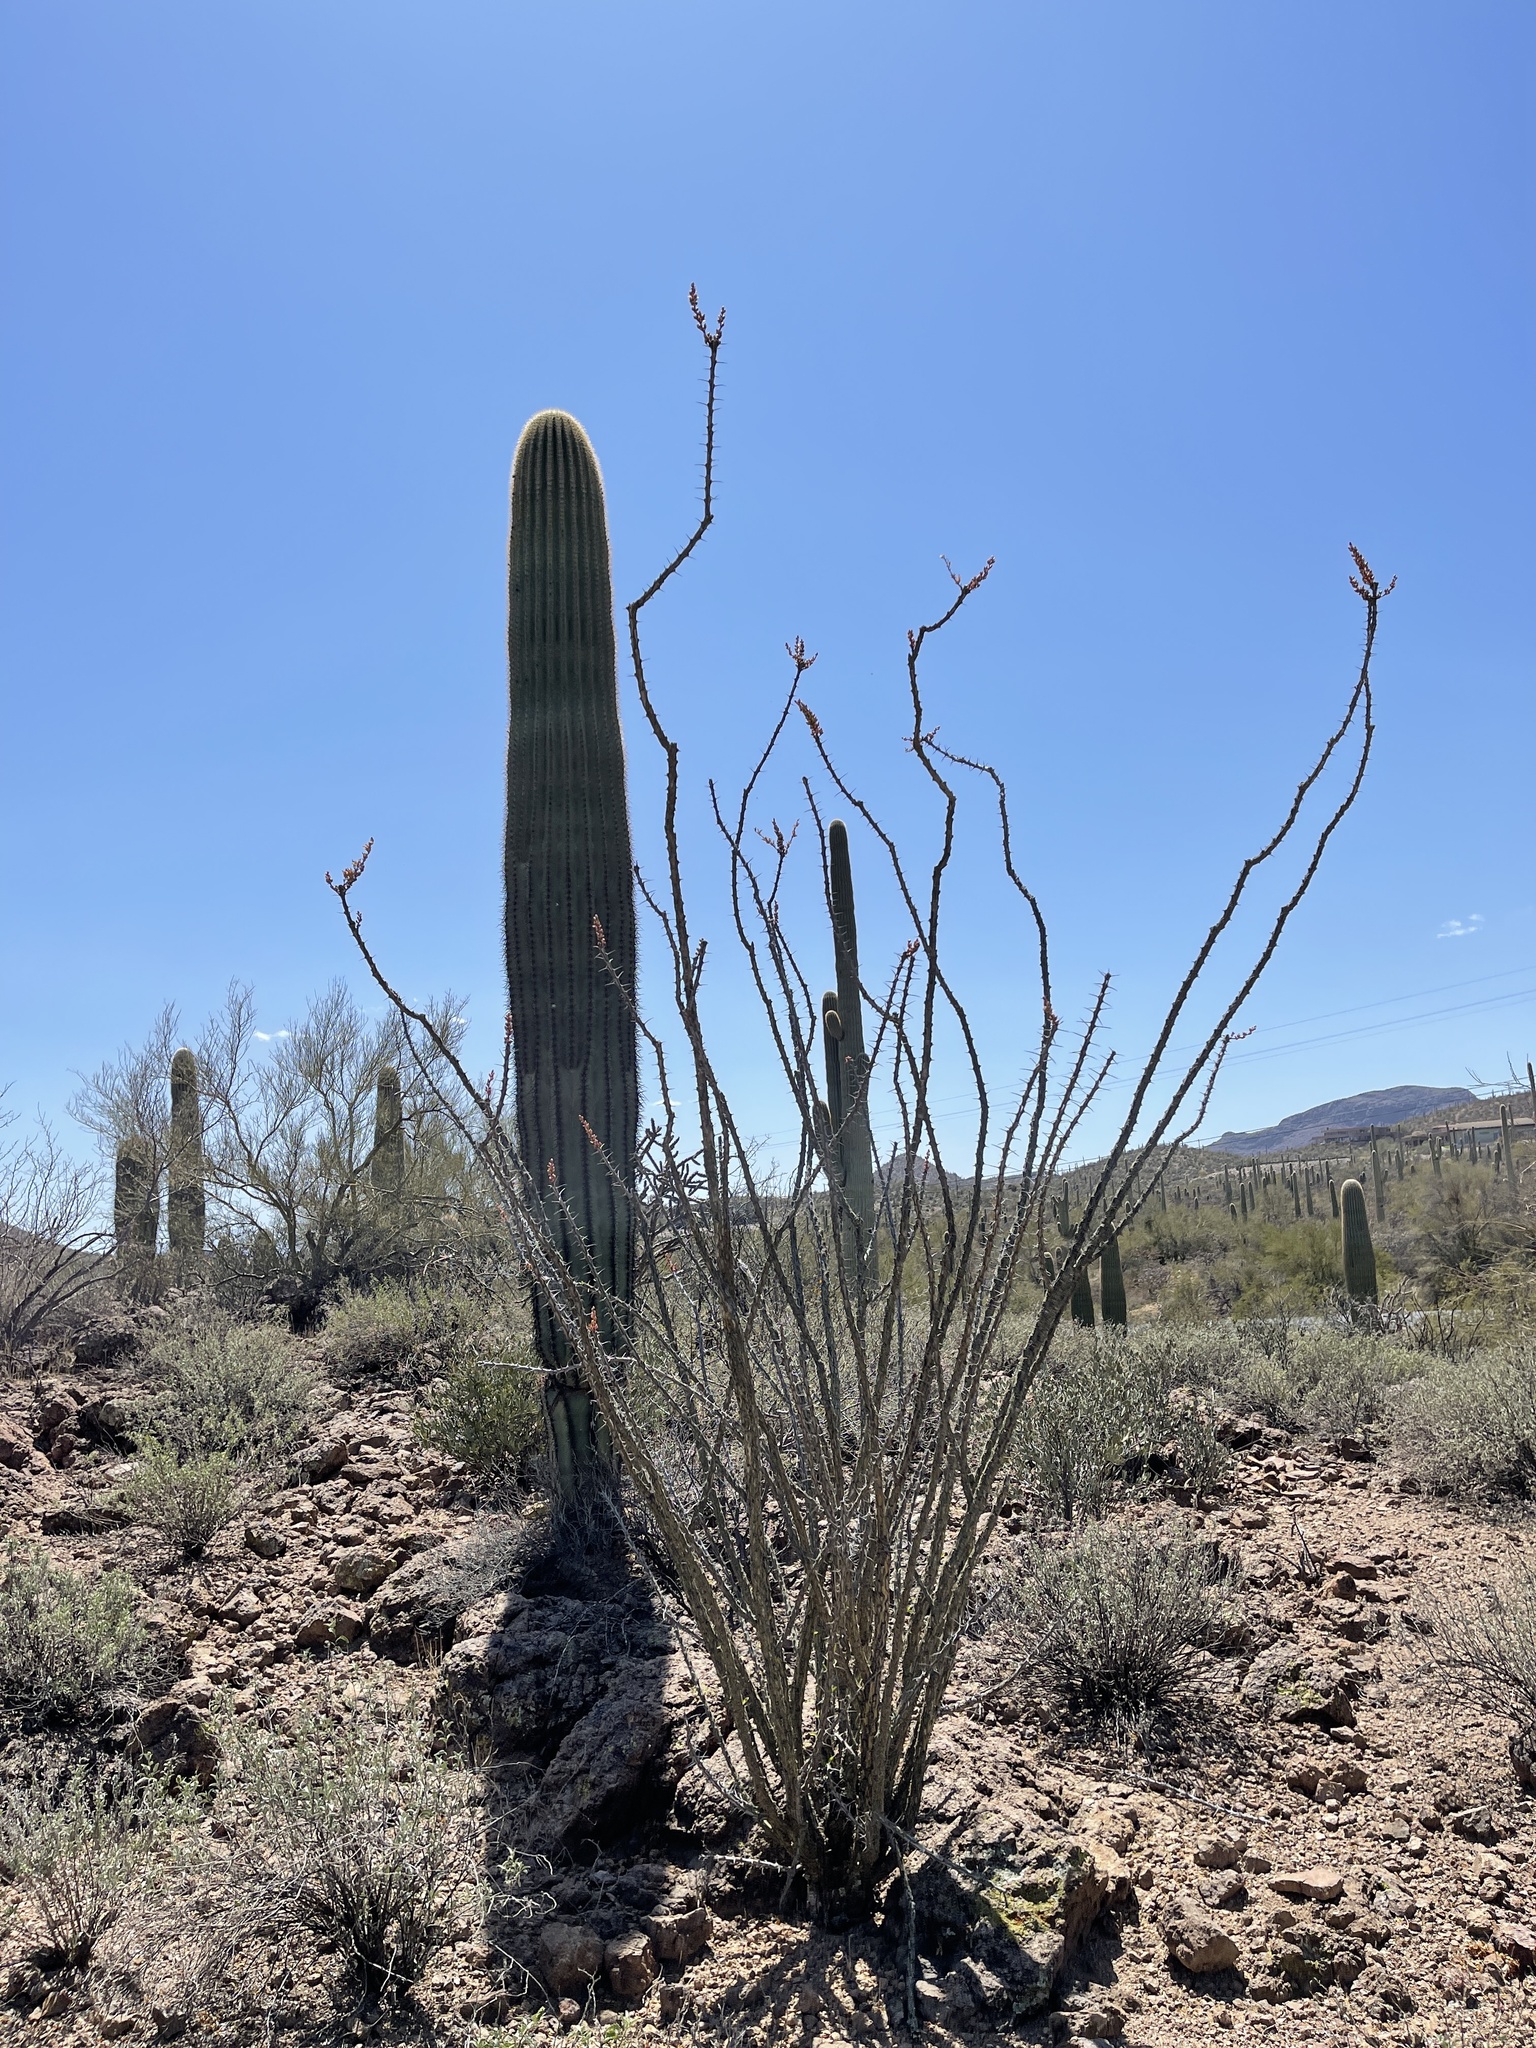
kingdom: Plantae
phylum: Tracheophyta
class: Magnoliopsida
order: Ericales
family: Fouquieriaceae
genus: Fouquieria
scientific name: Fouquieria splendens
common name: Vine-cactus
